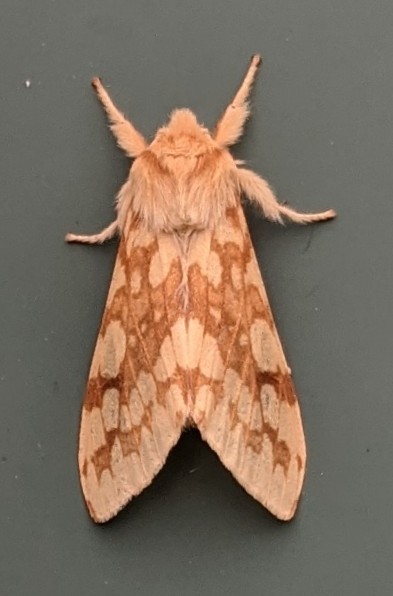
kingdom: Animalia
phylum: Arthropoda
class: Insecta
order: Lepidoptera
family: Erebidae
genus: Lophocampa
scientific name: Lophocampa maculata
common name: Spotted tussock moth
